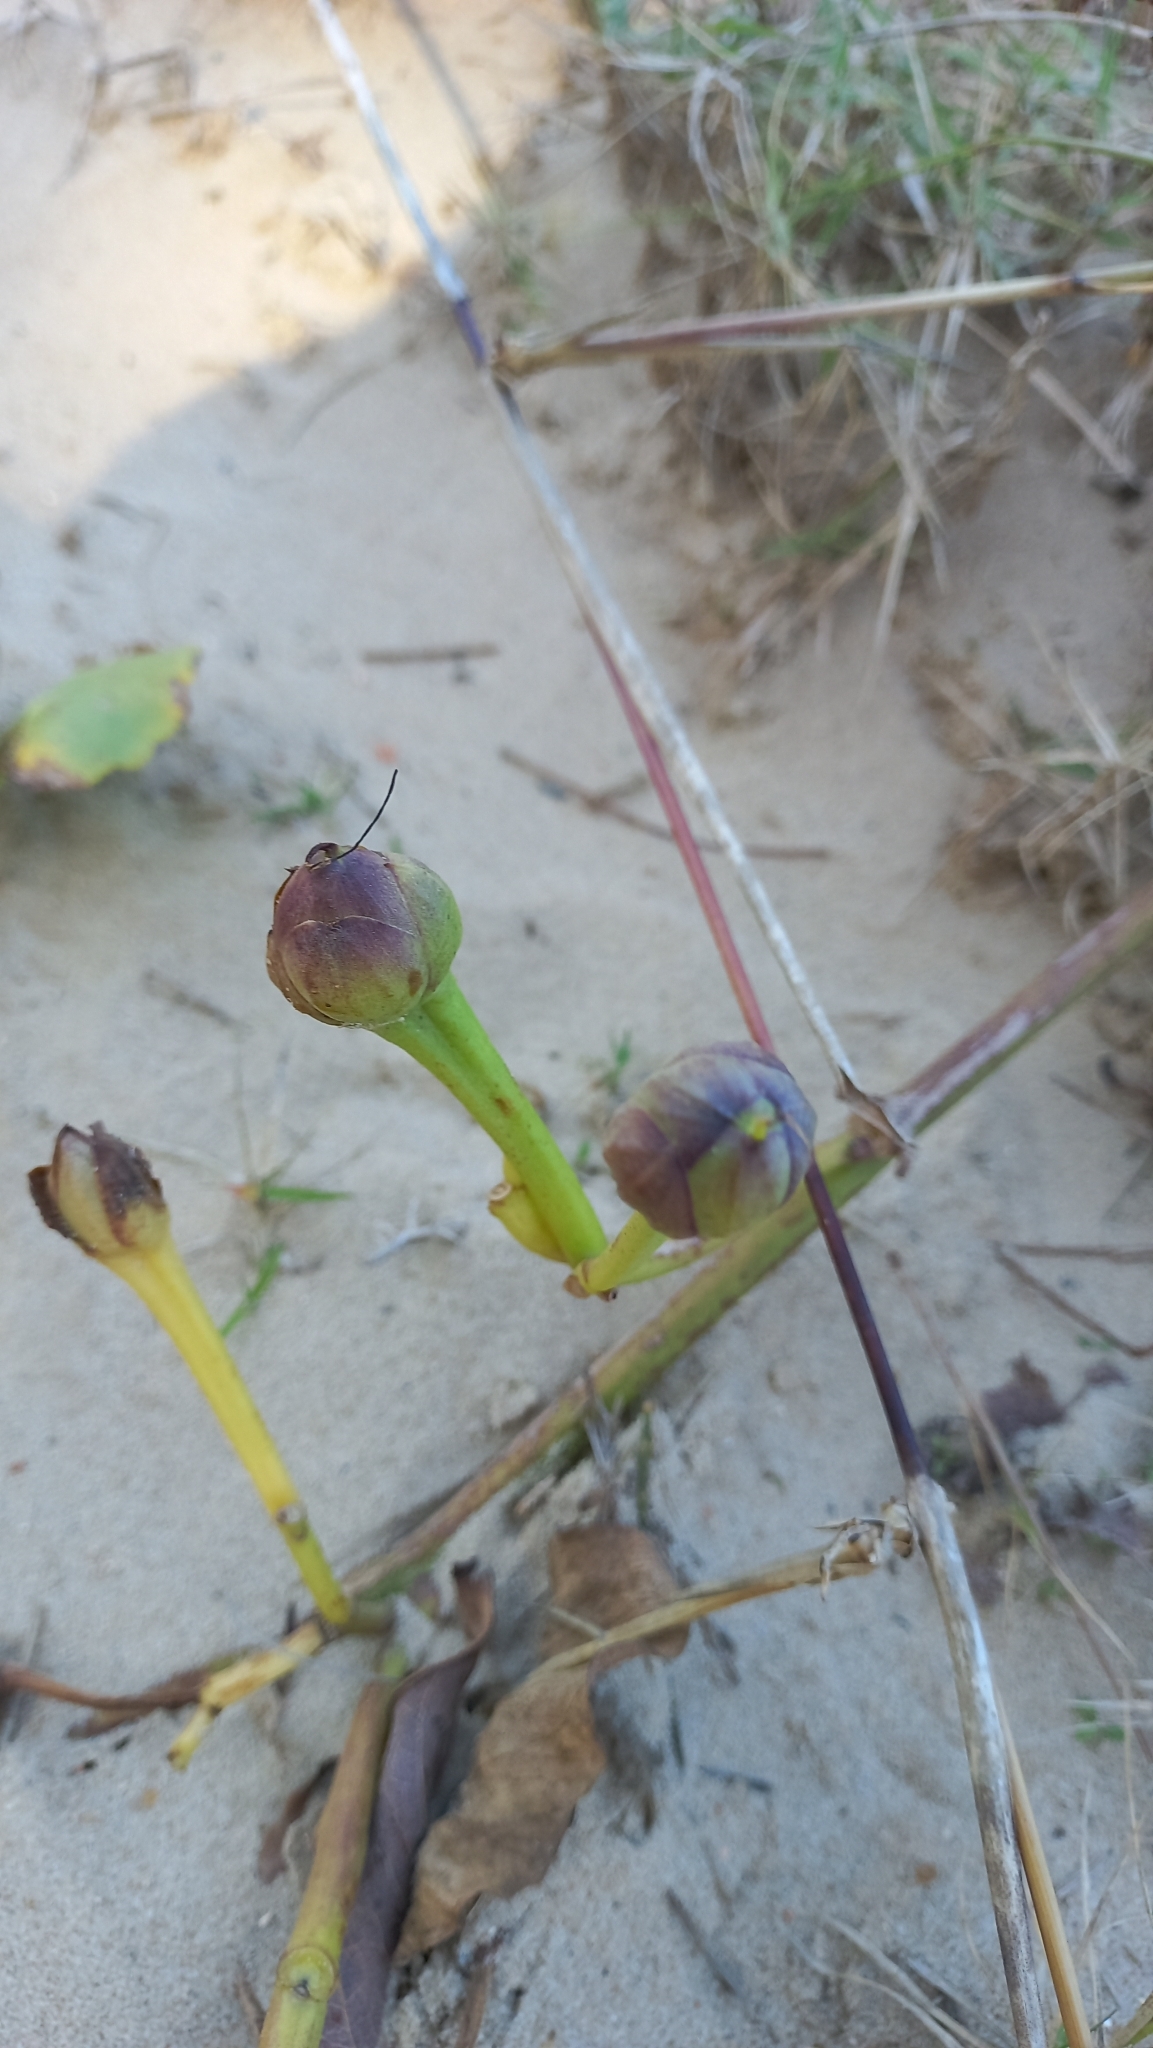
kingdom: Plantae
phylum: Tracheophyta
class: Magnoliopsida
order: Solanales
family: Convolvulaceae
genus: Ipomoea
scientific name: Ipomoea pes-caprae
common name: Beach morning glory
